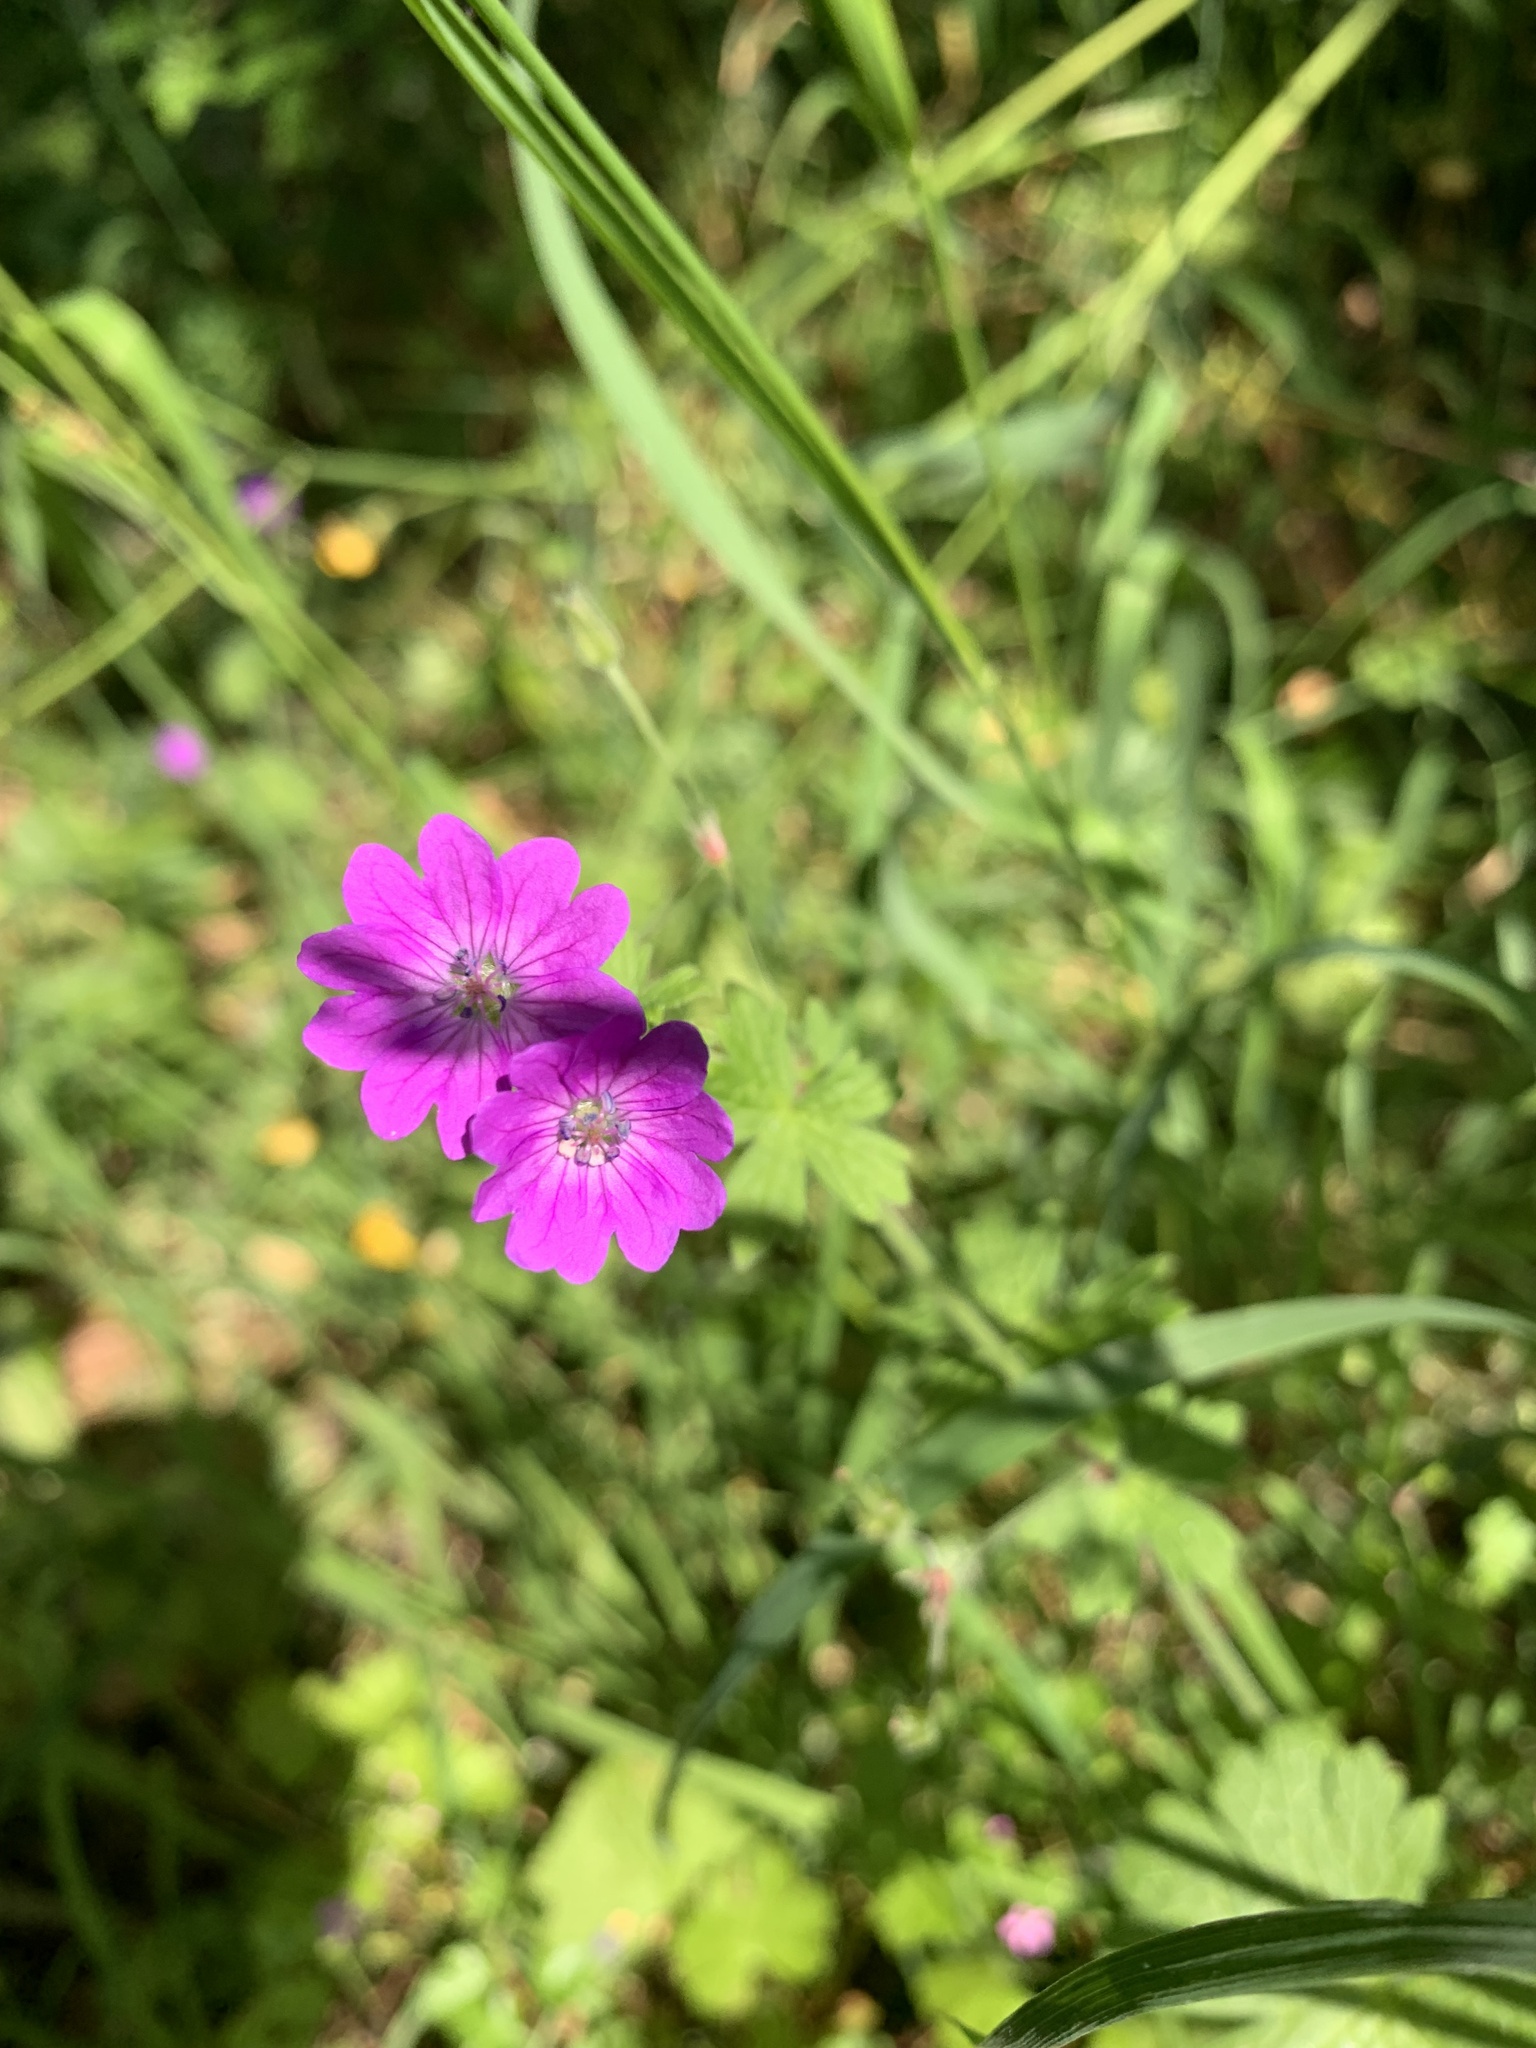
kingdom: Plantae
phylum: Tracheophyta
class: Magnoliopsida
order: Geraniales
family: Geraniaceae
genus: Geranium
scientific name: Geranium sanguineum
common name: Bloody crane's-bill
